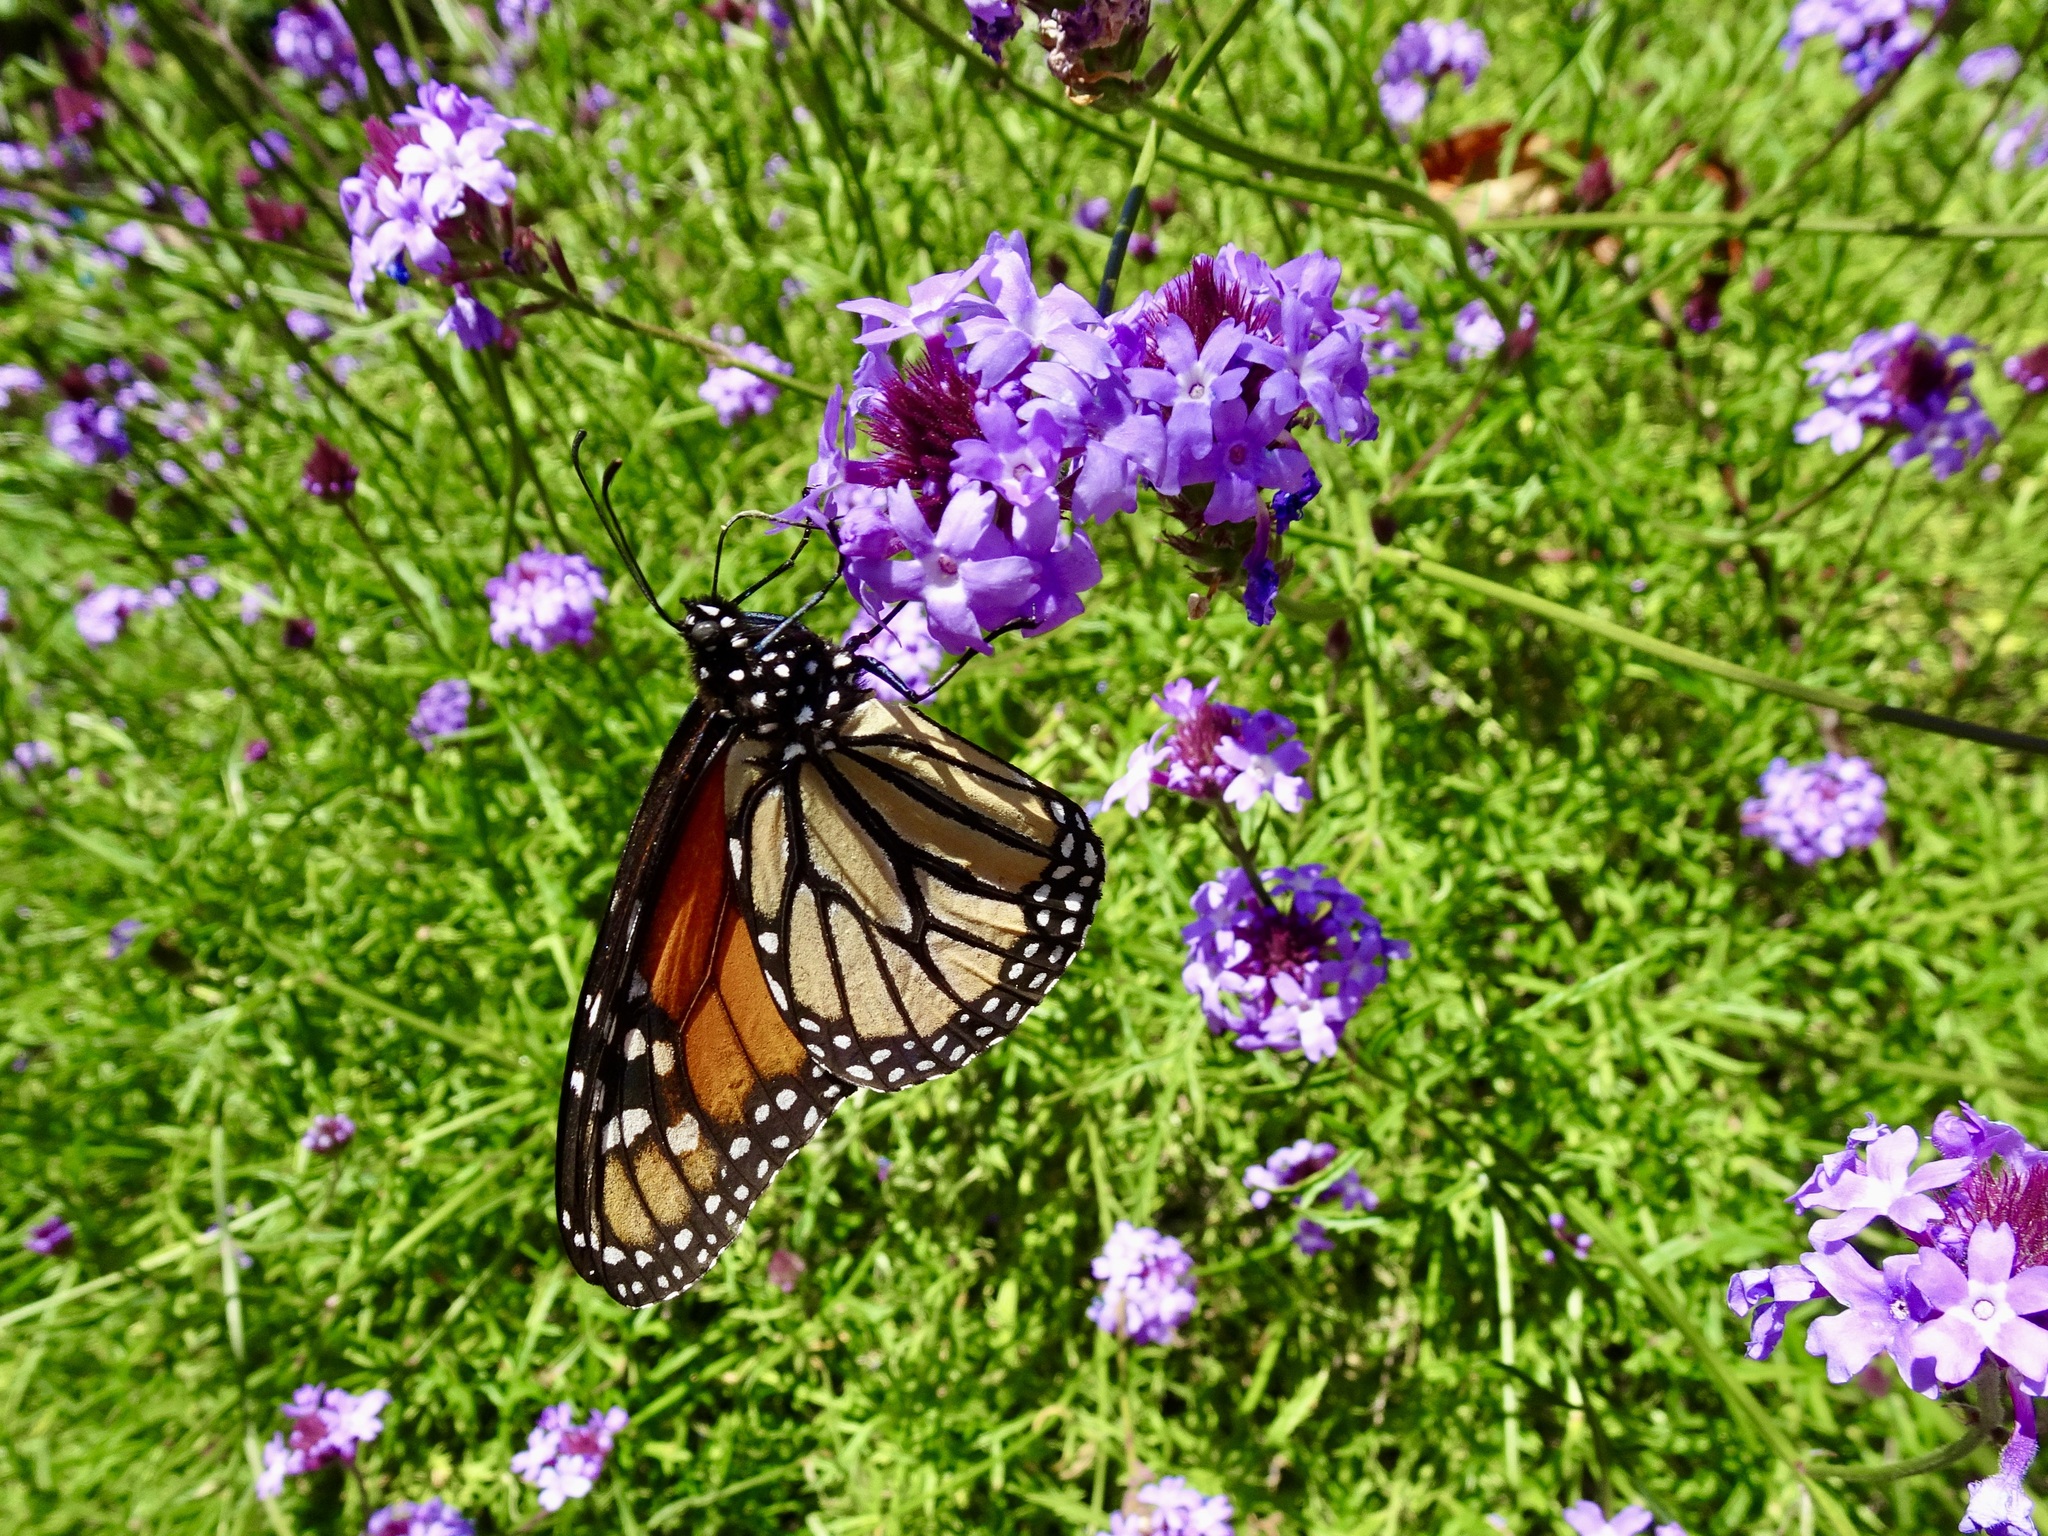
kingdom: Animalia
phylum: Arthropoda
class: Insecta
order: Lepidoptera
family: Nymphalidae
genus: Danaus
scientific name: Danaus plexippus
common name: Monarch
